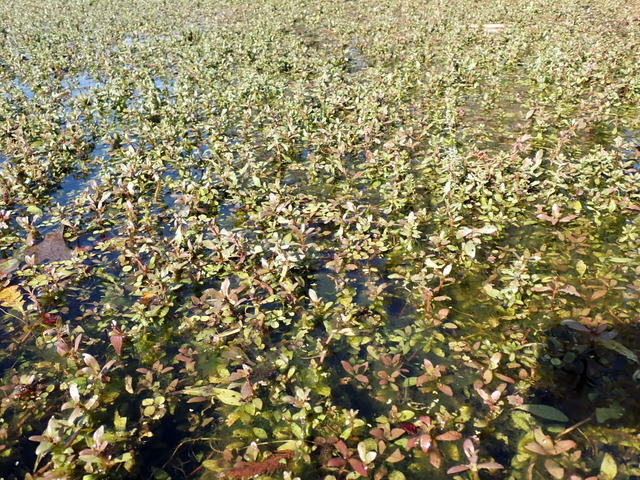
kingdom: Plantae
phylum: Tracheophyta
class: Magnoliopsida
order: Lamiales
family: Acanthaceae
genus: Hygrophila
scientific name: Hygrophila polysperma
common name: Indian swampweed
